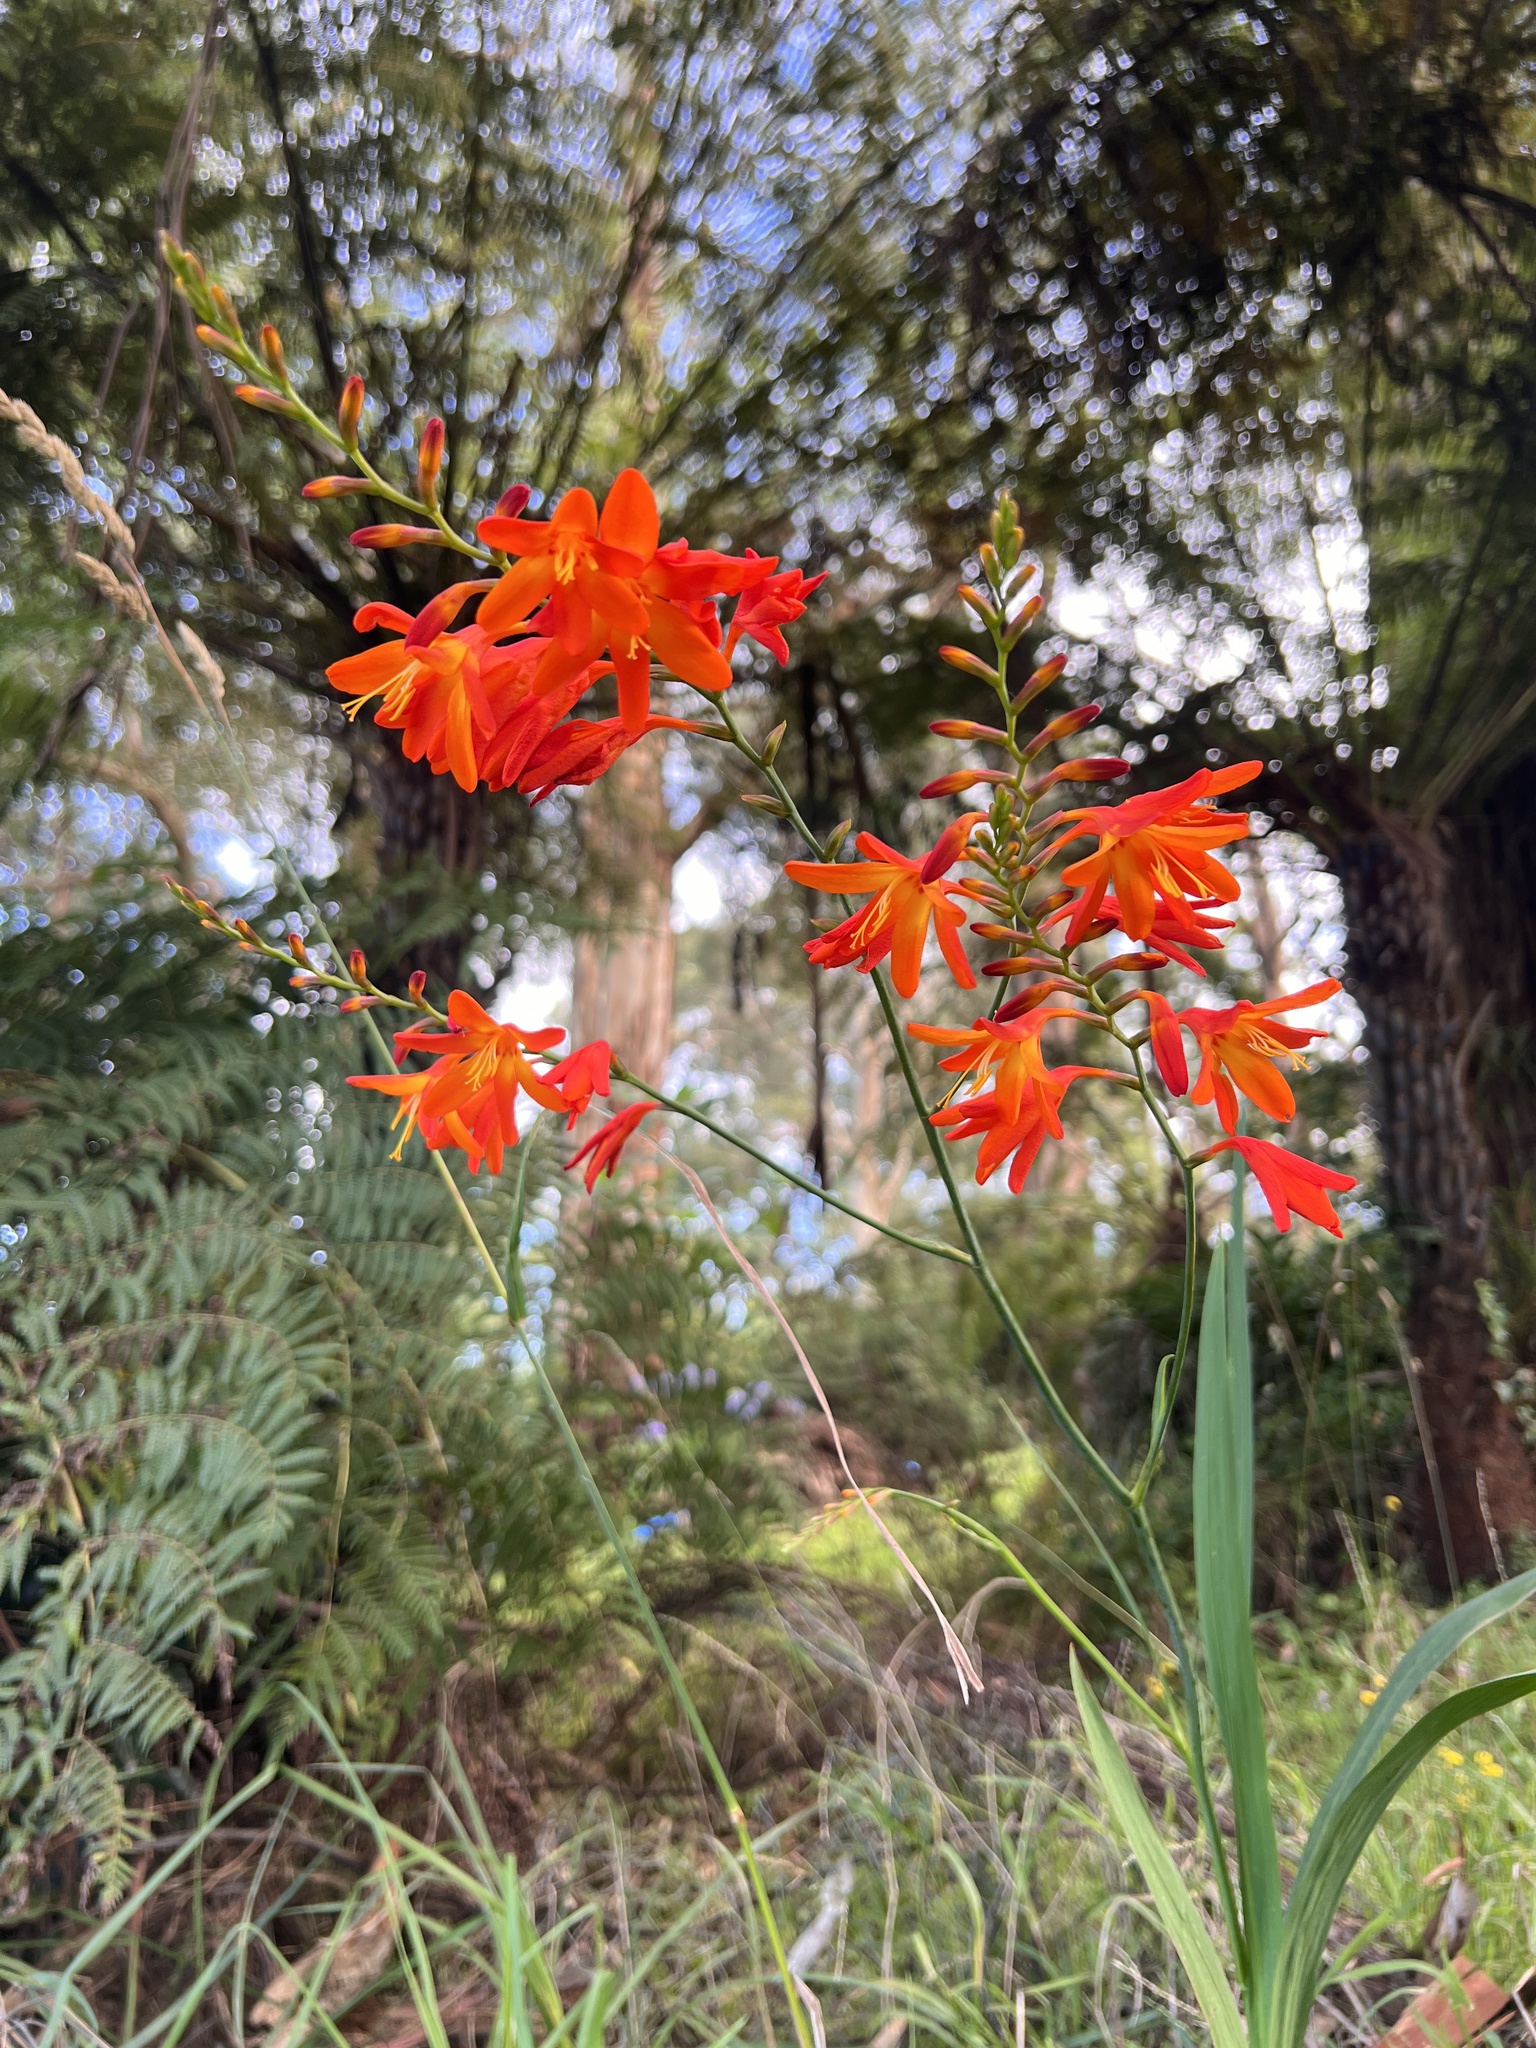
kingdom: Plantae
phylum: Tracheophyta
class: Liliopsida
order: Asparagales
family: Iridaceae
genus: Crocosmia
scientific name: Crocosmia crocosmiiflora
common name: Montbretia
